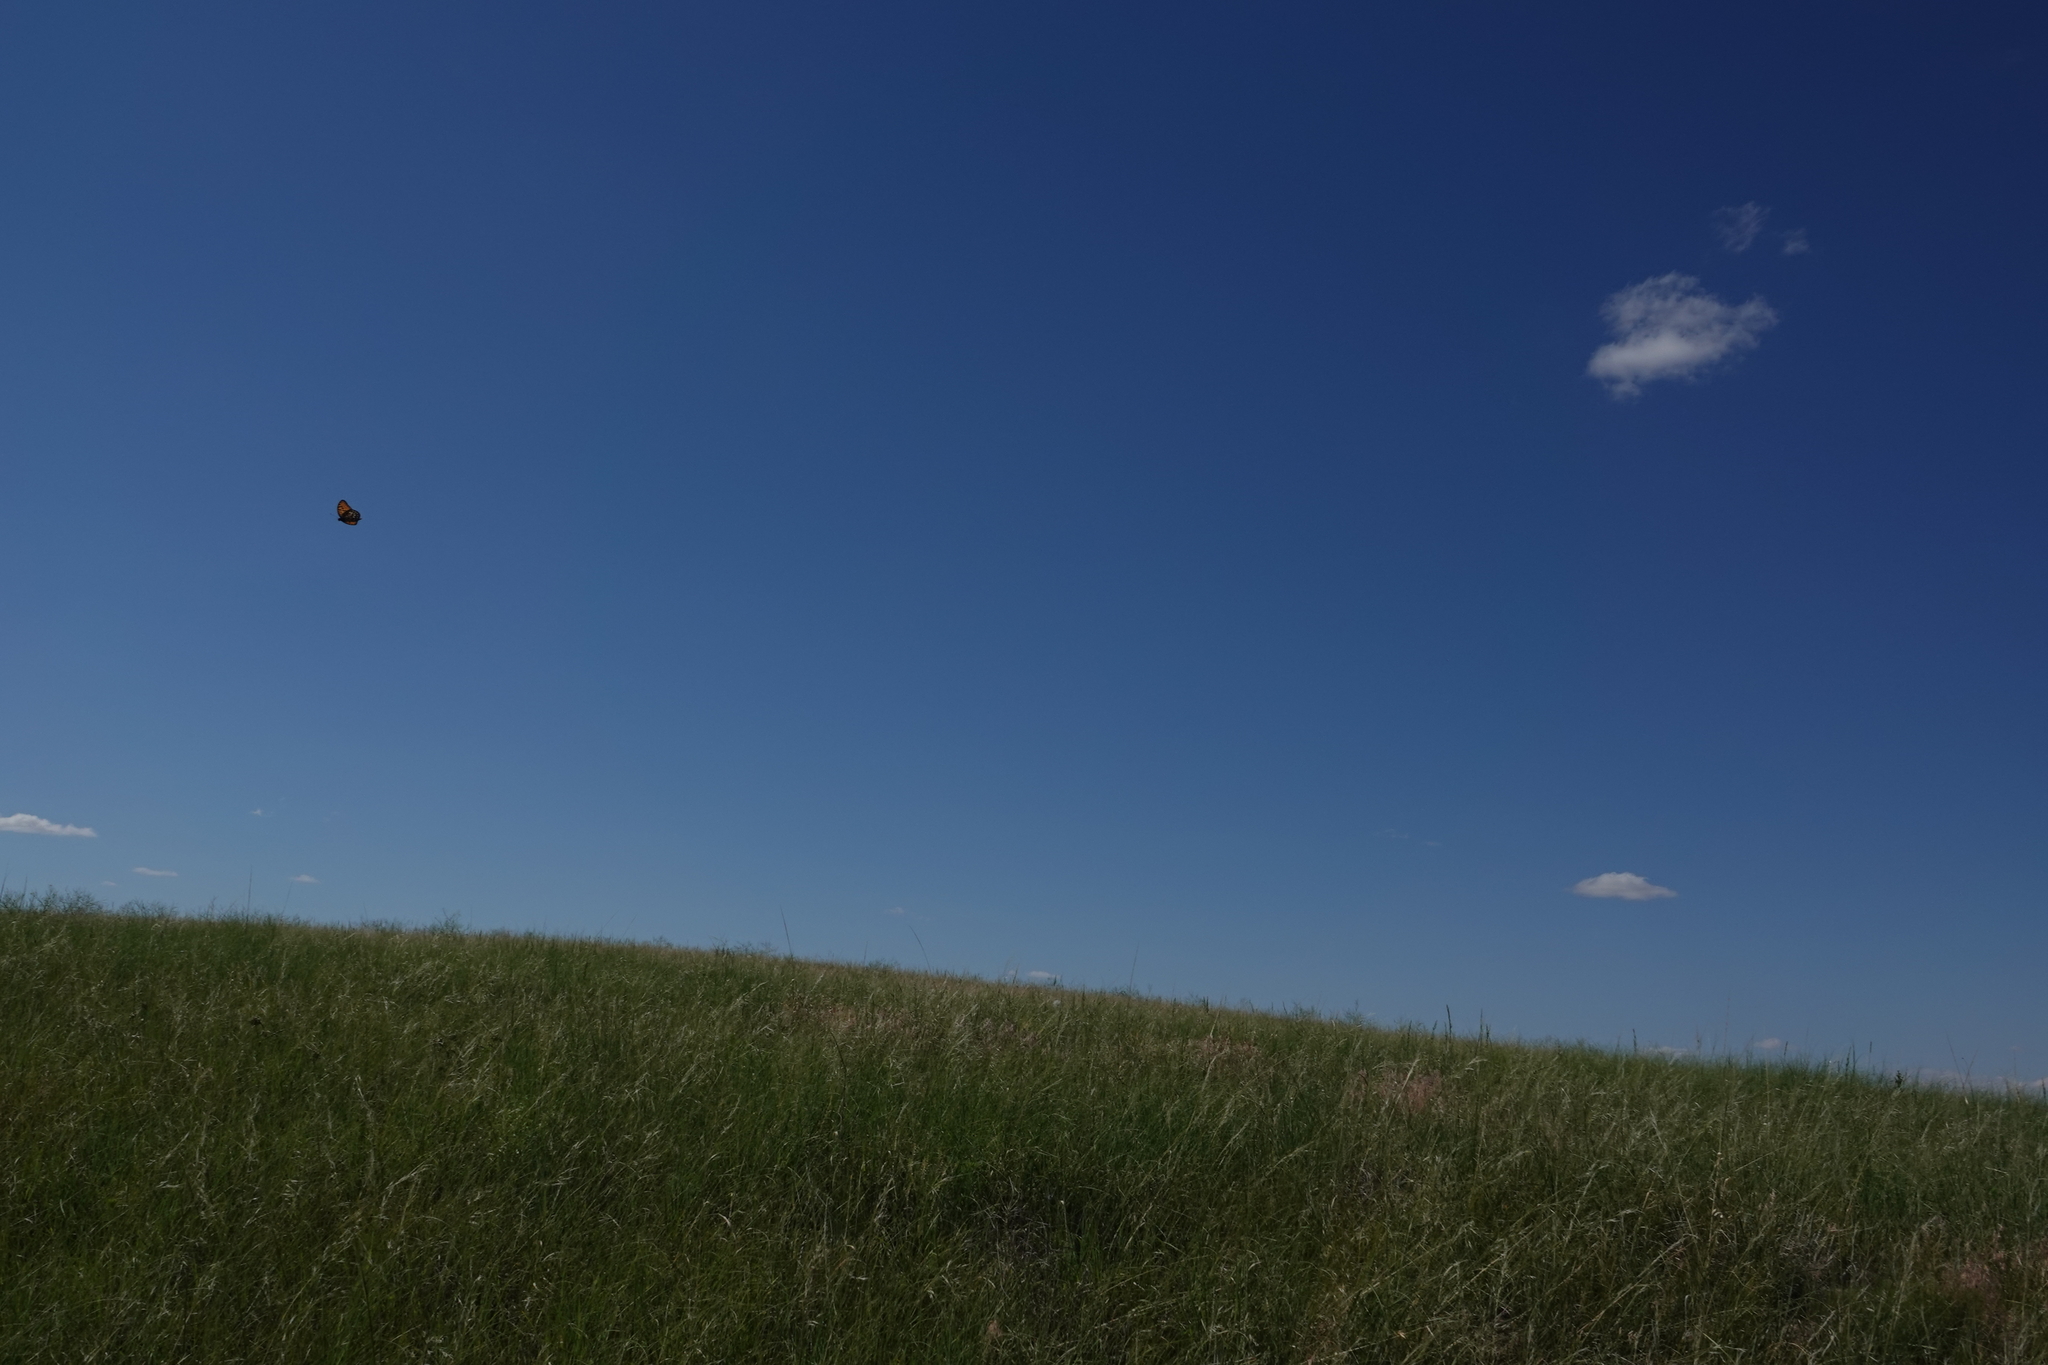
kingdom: Animalia
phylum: Arthropoda
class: Insecta
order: Lepidoptera
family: Nymphalidae
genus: Speyeria
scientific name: Speyeria idalia
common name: Regal fritillary
